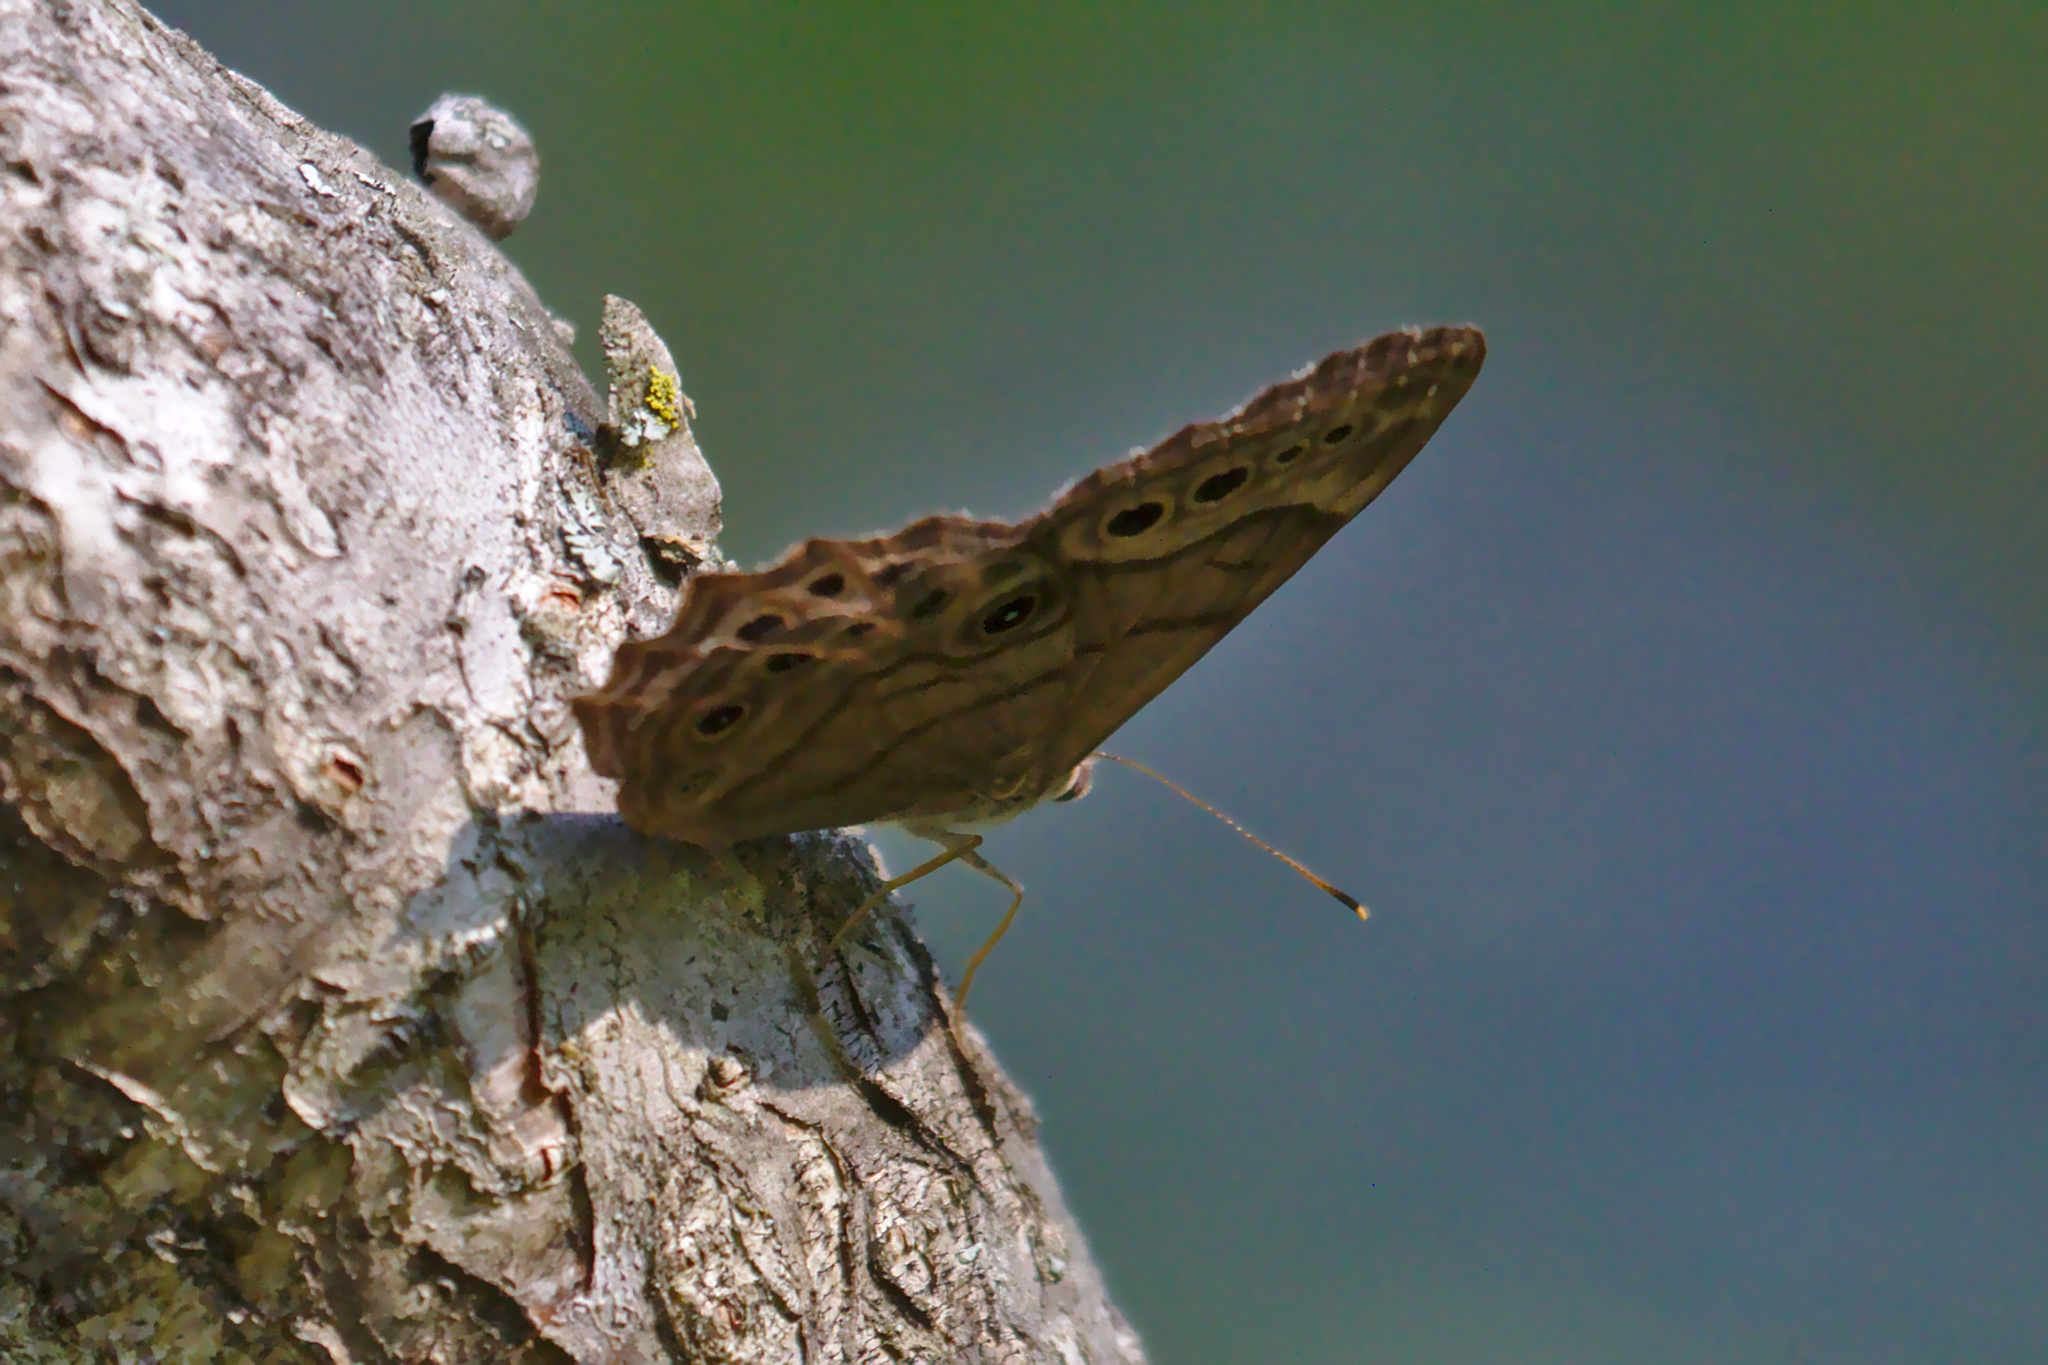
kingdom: Animalia
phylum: Arthropoda
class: Insecta
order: Lepidoptera
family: Nymphalidae
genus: Lethe
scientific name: Lethe anthedon
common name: Northern pearly-eye
